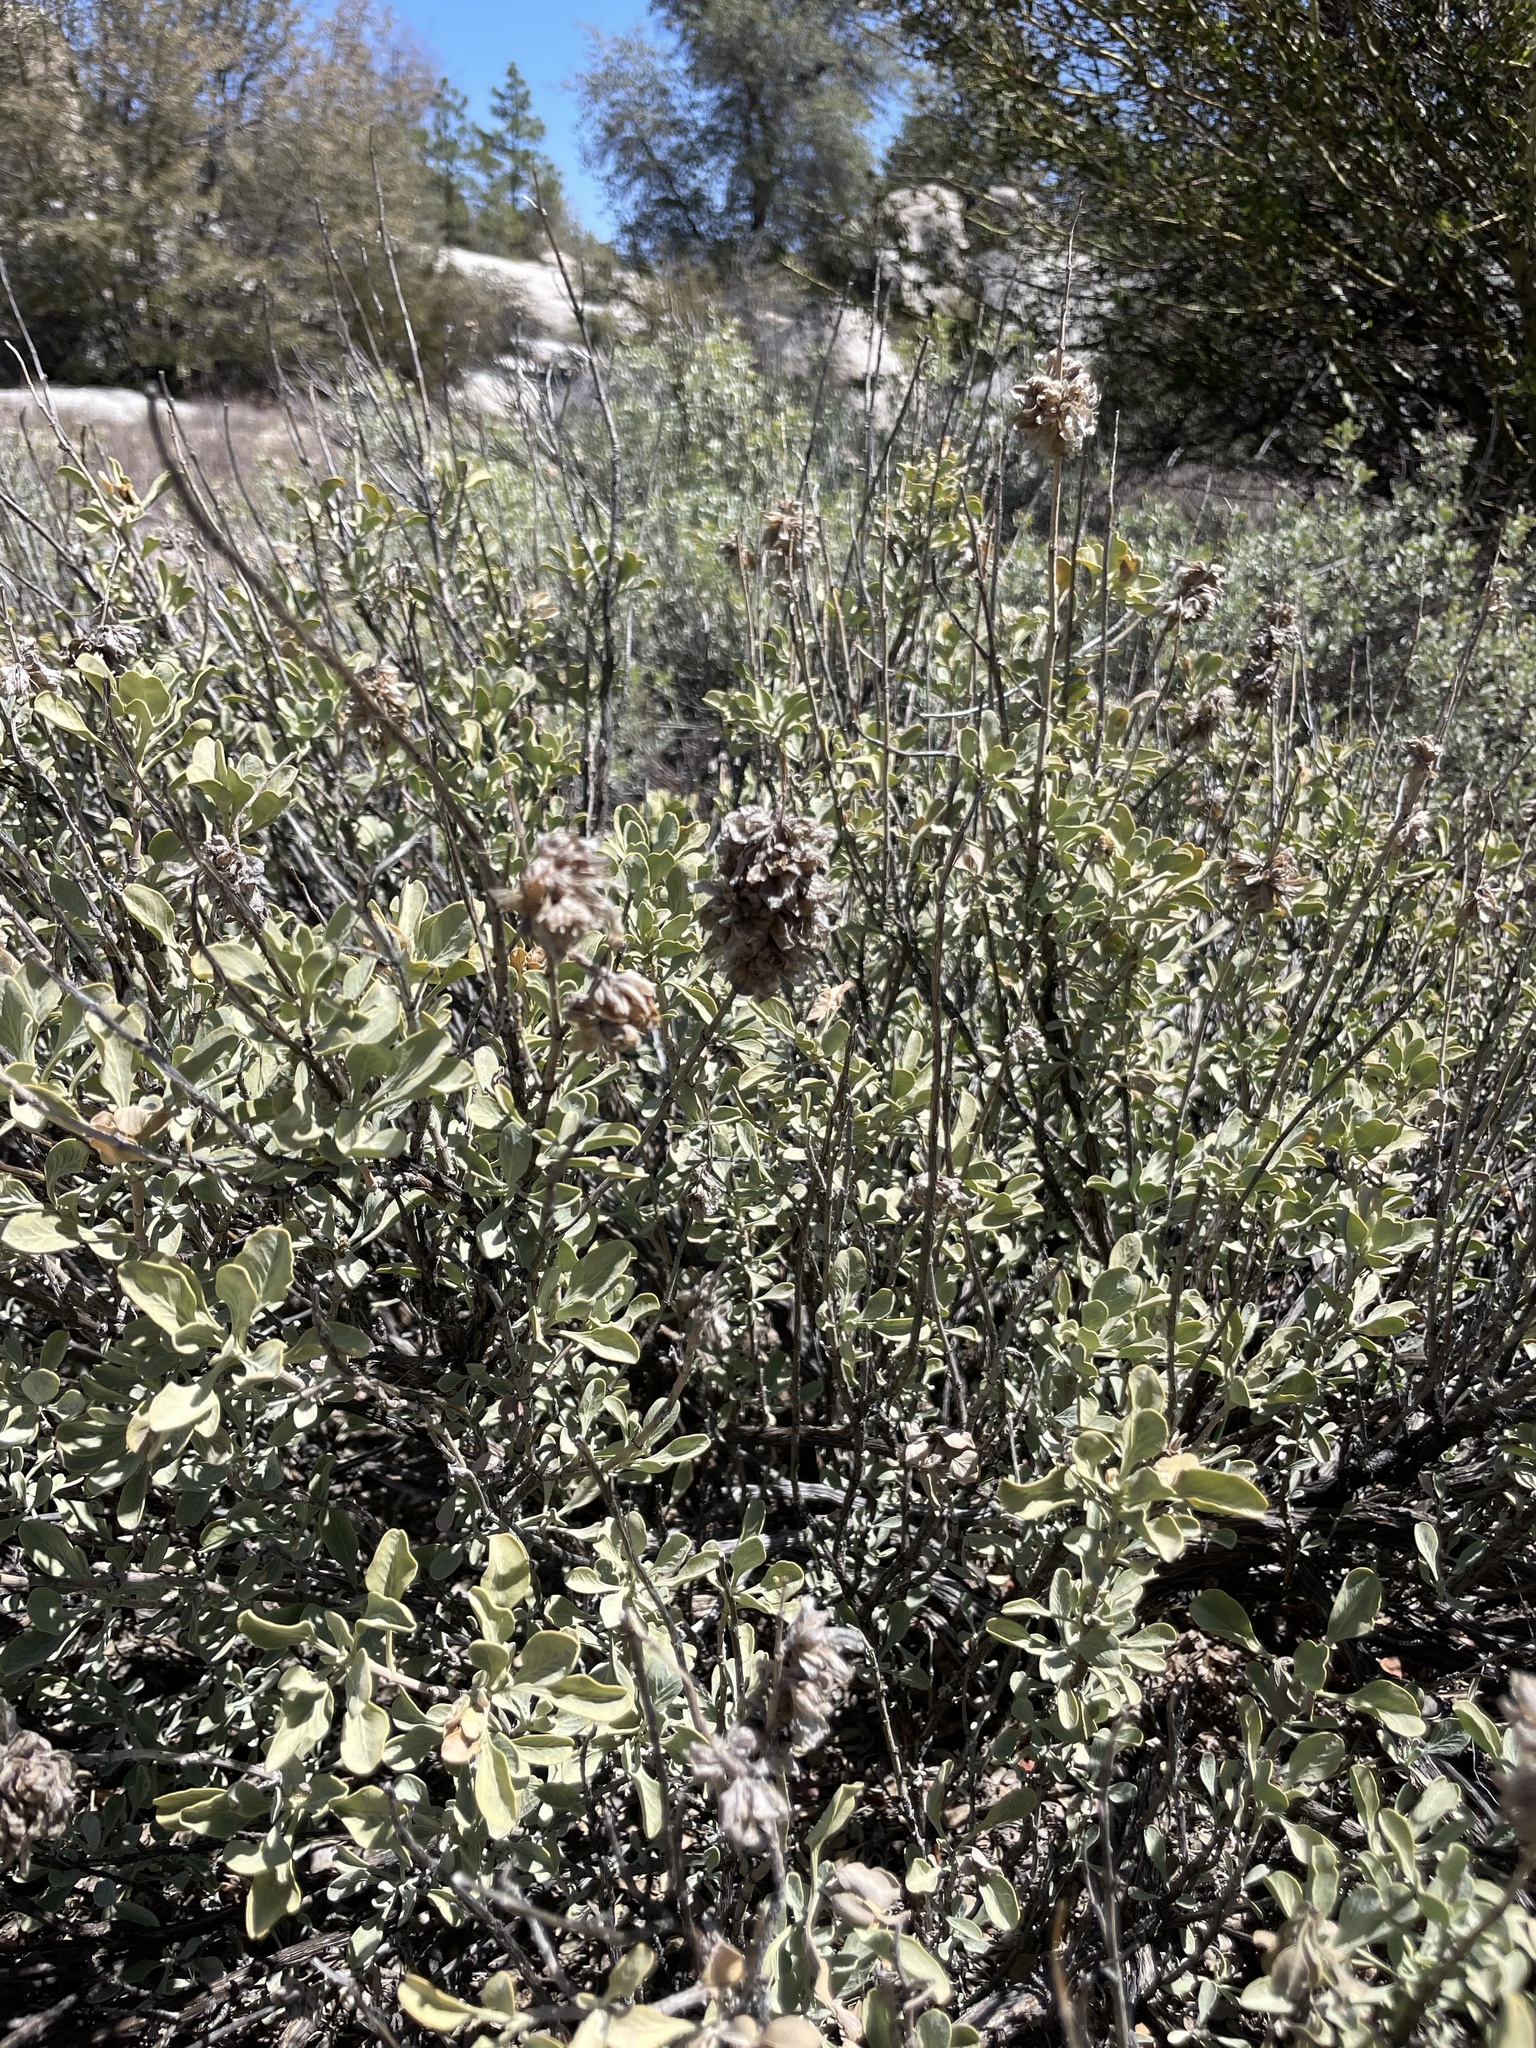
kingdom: Plantae
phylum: Tracheophyta
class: Magnoliopsida
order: Lamiales
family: Lamiaceae
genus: Salvia
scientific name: Salvia pachyphylla
